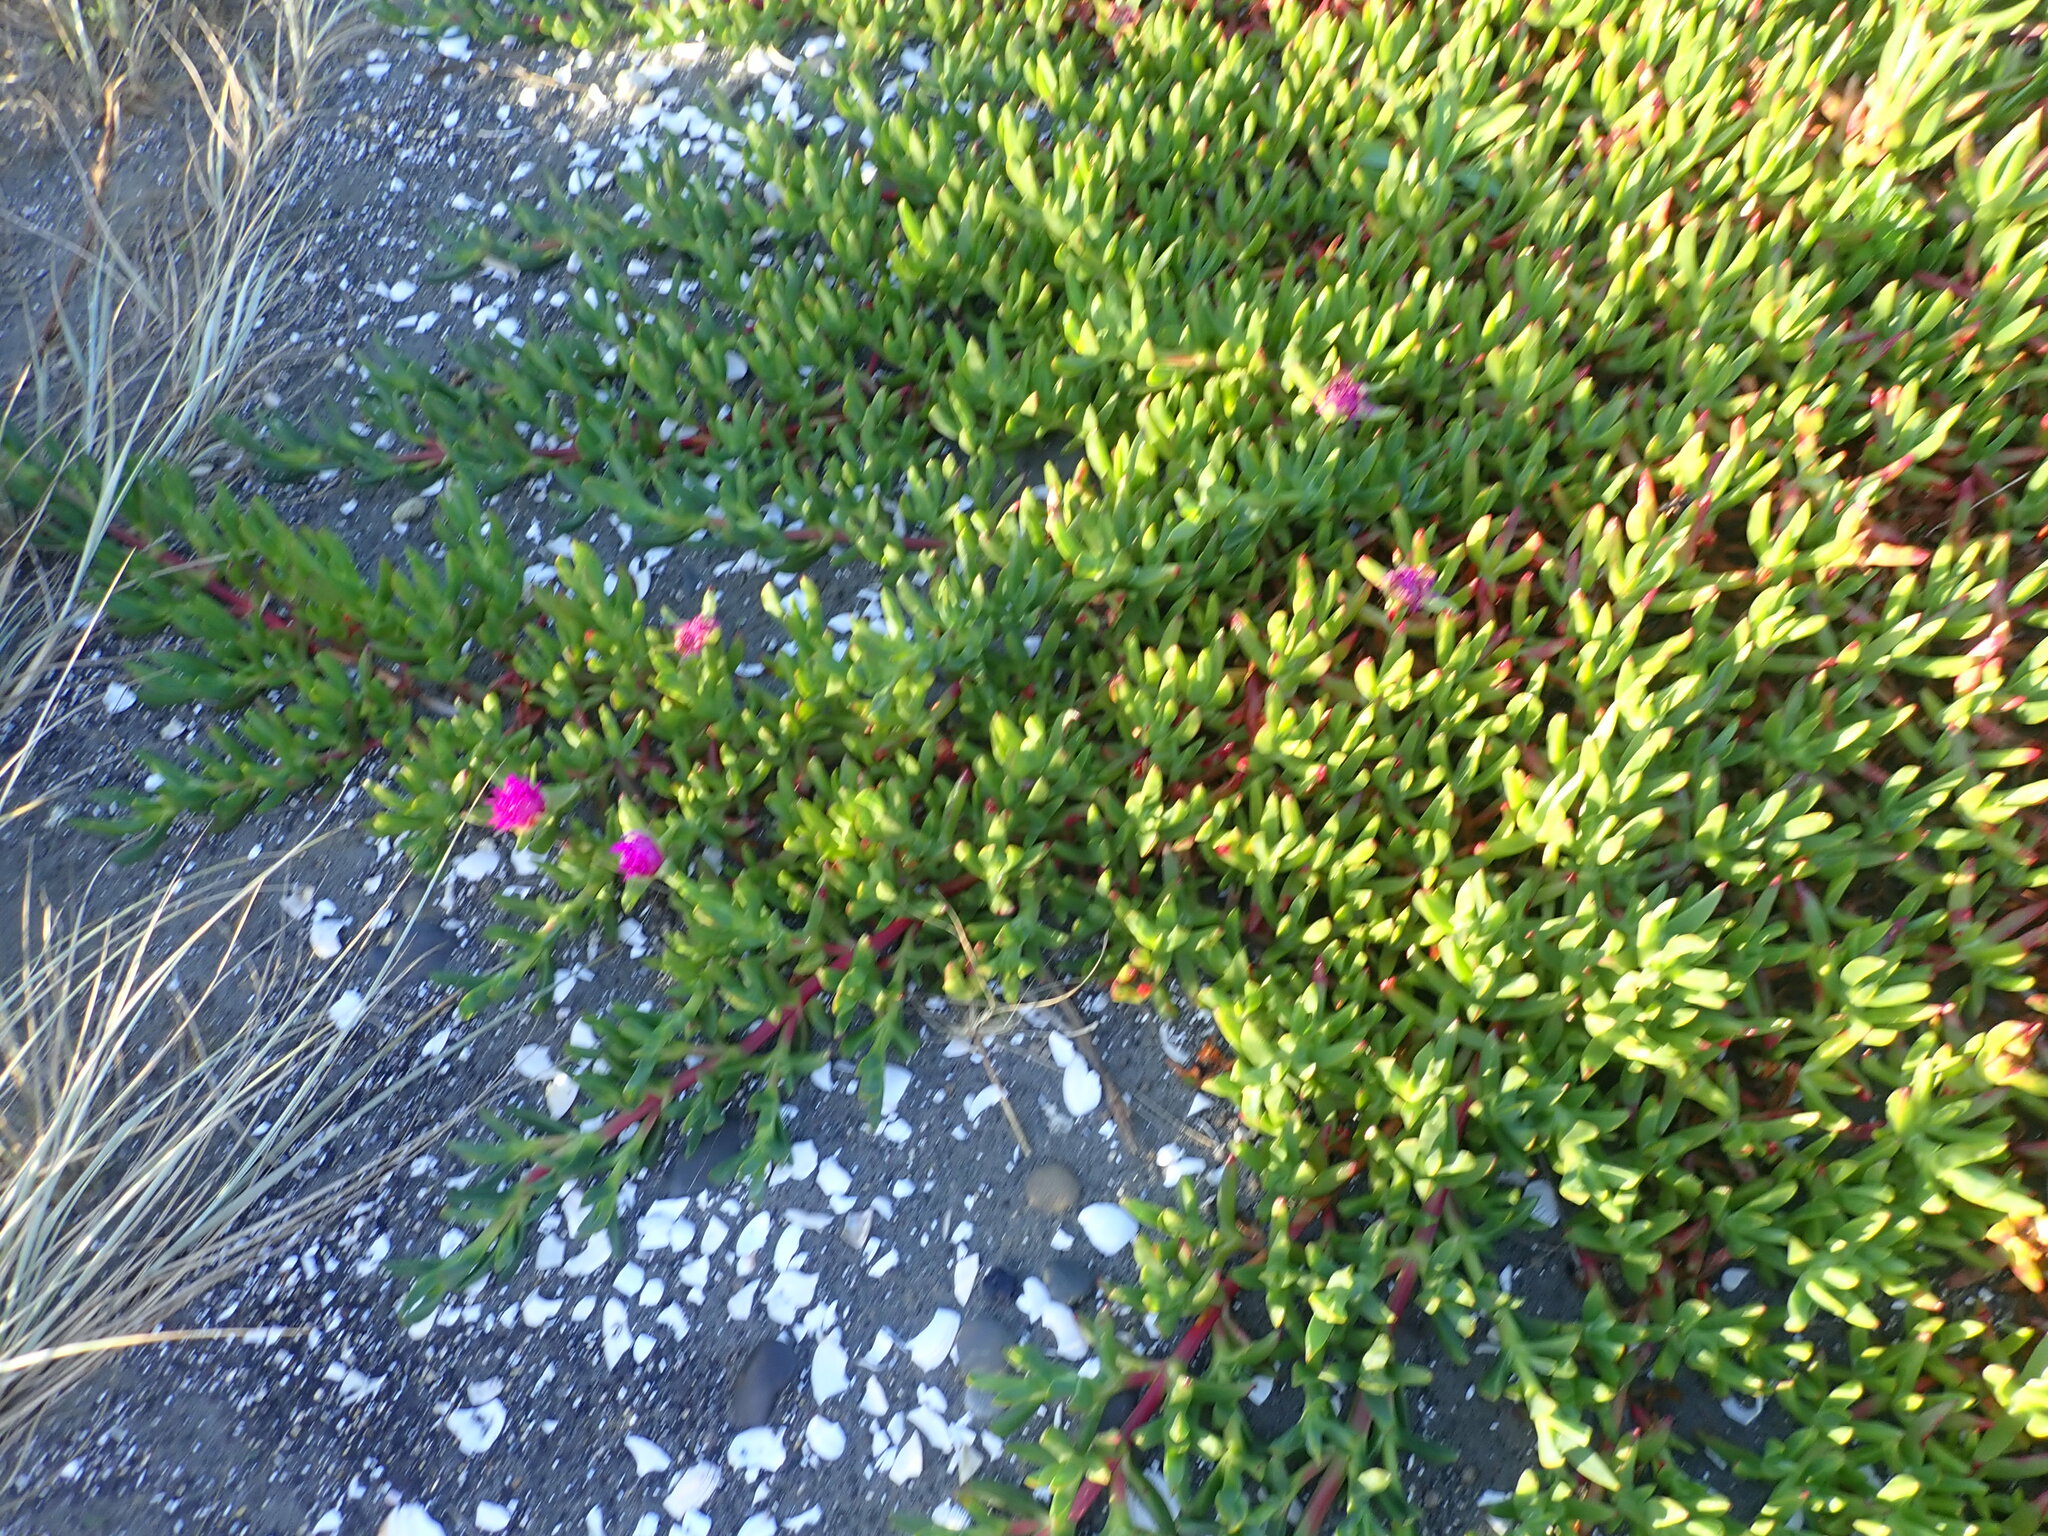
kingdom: Plantae
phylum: Tracheophyta
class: Magnoliopsida
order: Caryophyllales
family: Aizoaceae
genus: Carpobrotus
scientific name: Carpobrotus chilensis
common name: Sea fig
